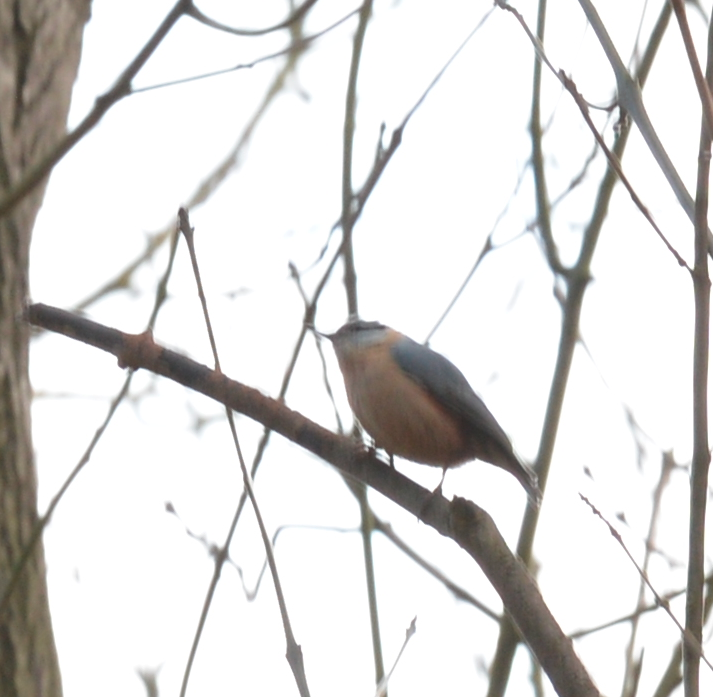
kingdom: Animalia
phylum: Chordata
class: Aves
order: Passeriformes
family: Sittidae
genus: Sitta
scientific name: Sitta europaea
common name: Eurasian nuthatch
